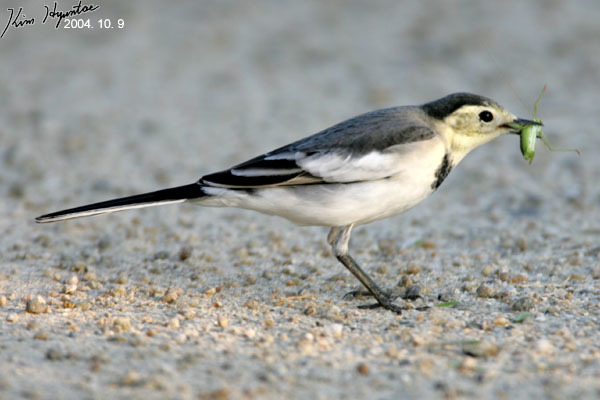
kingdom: Animalia
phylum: Chordata
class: Aves
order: Passeriformes
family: Motacillidae
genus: Motacilla
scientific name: Motacilla alba
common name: White wagtail
